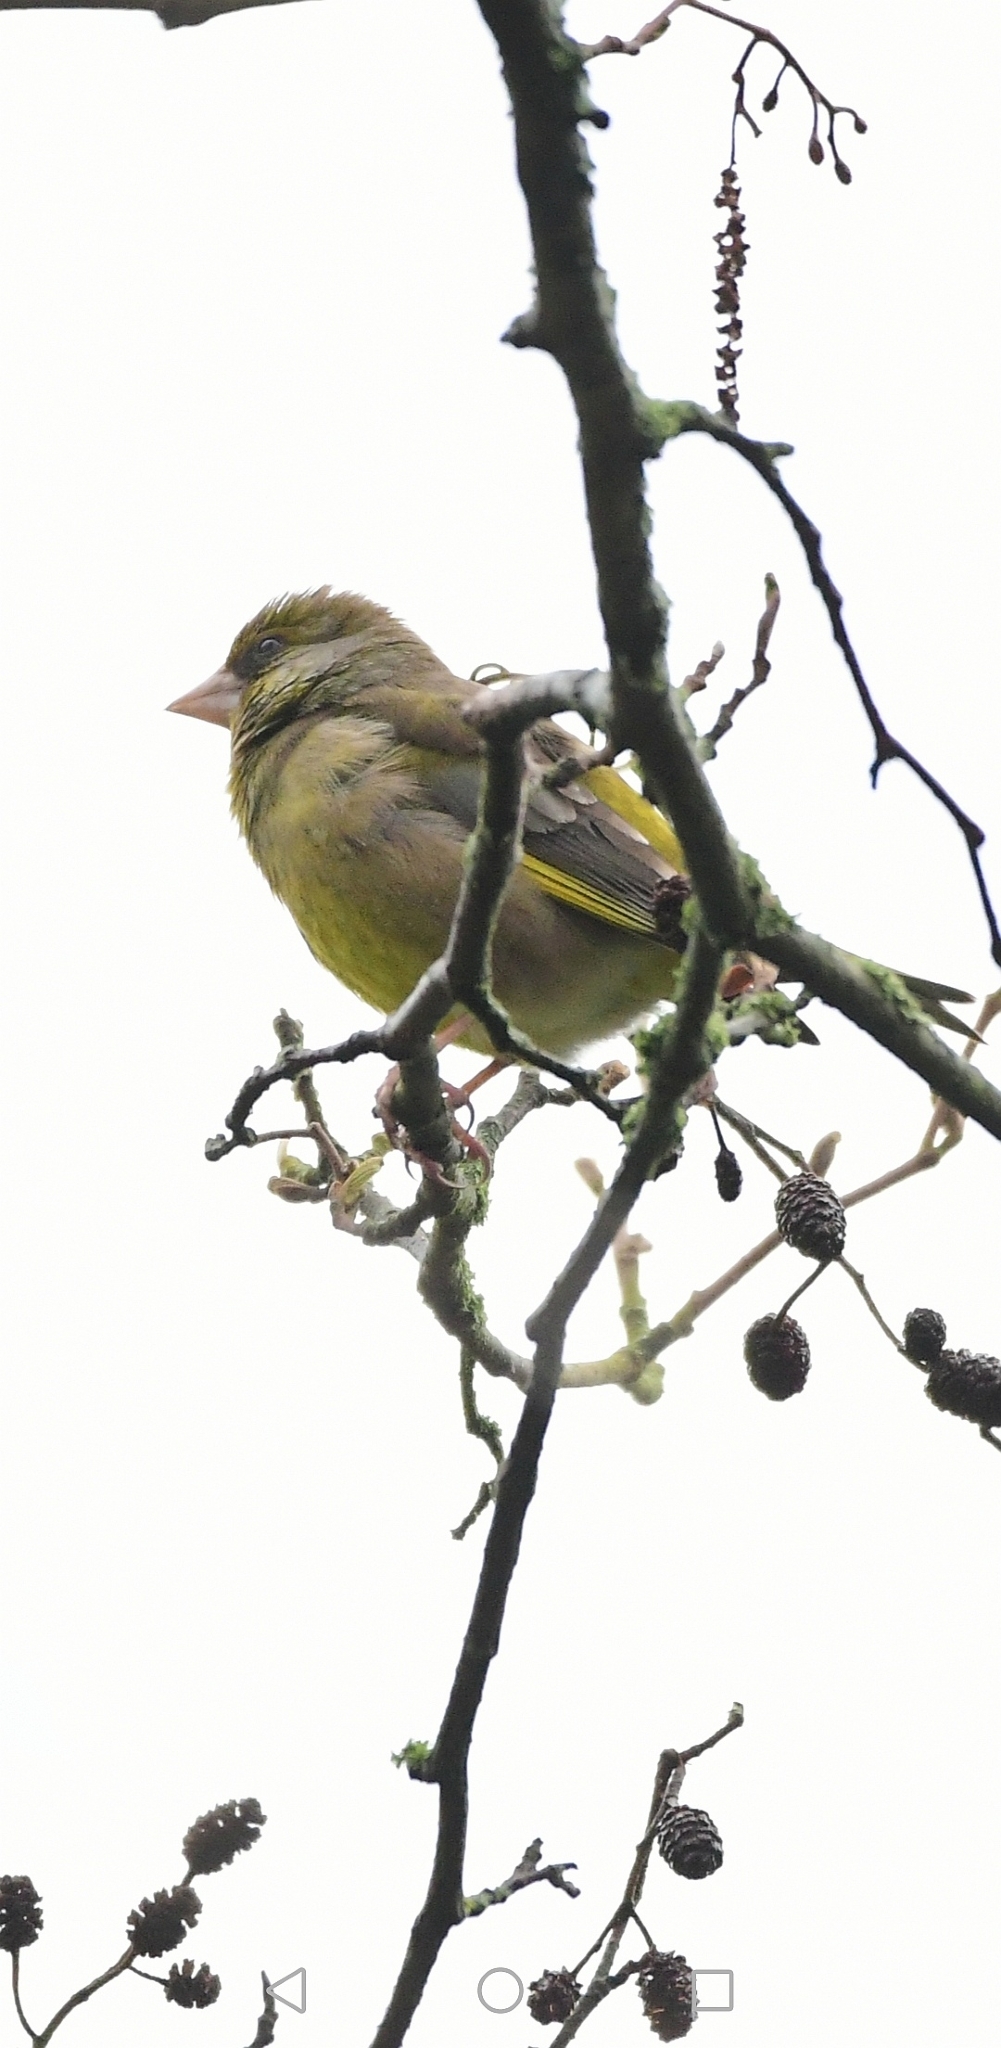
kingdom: Plantae
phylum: Tracheophyta
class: Liliopsida
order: Poales
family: Poaceae
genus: Chloris
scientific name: Chloris chloris
